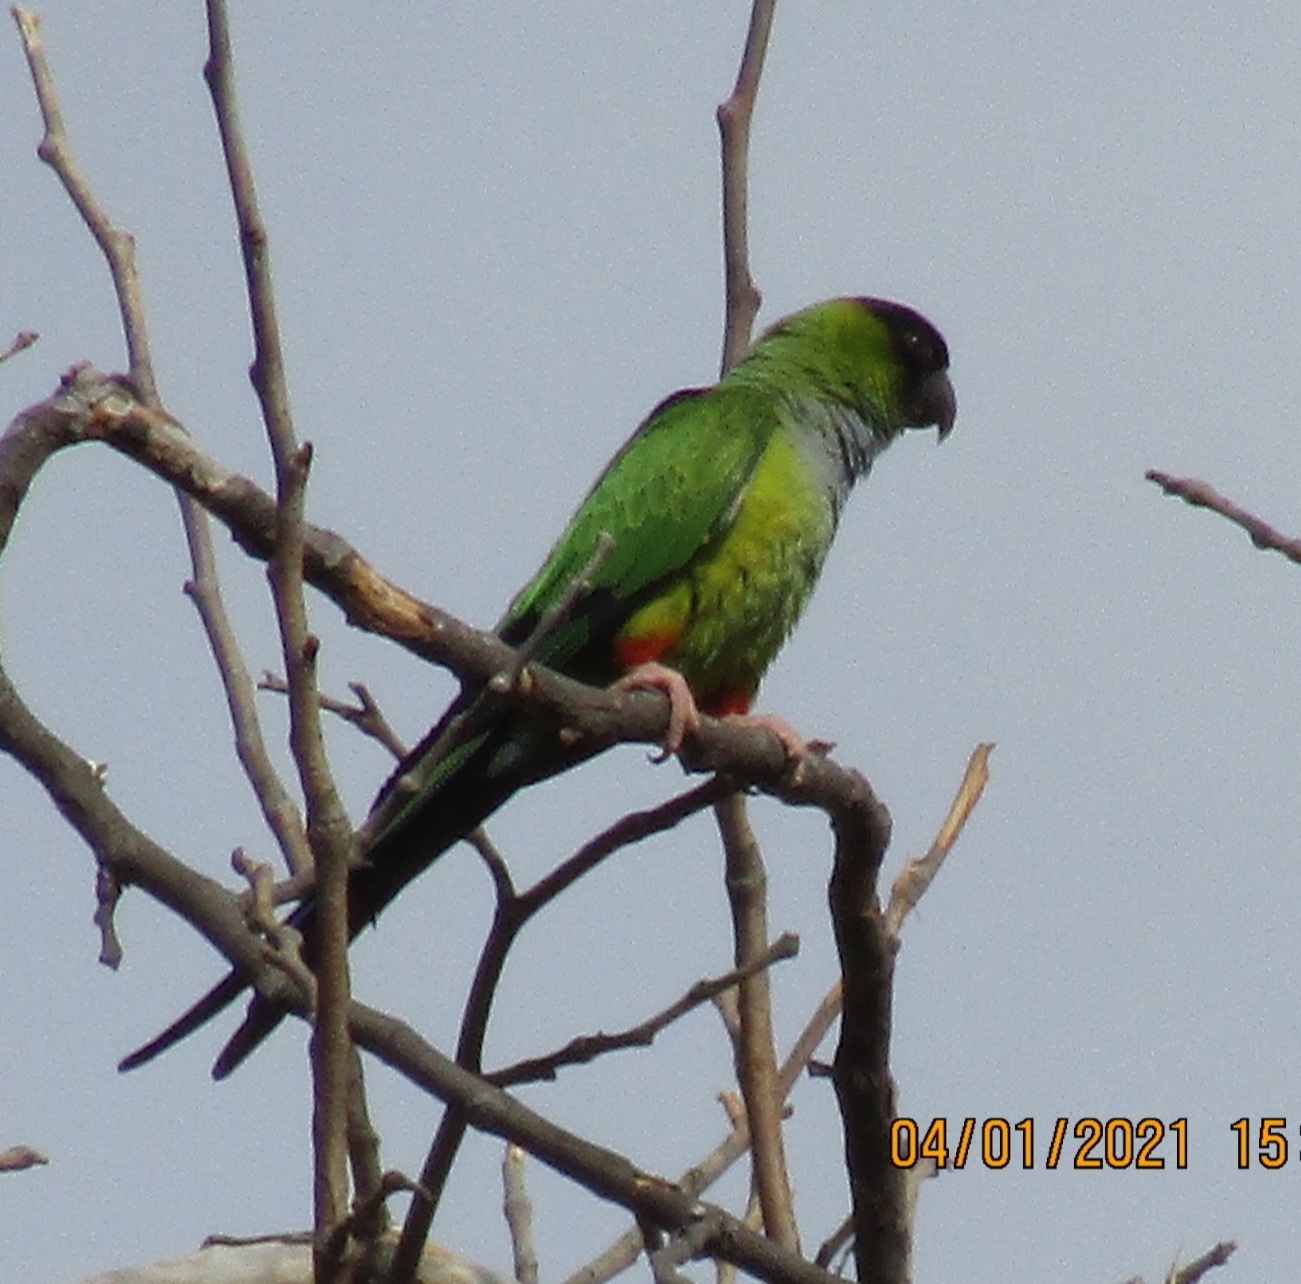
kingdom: Animalia
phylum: Chordata
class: Aves
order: Psittaciformes
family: Psittacidae
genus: Nandayus
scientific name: Nandayus nenday
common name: Nanday parakeet
